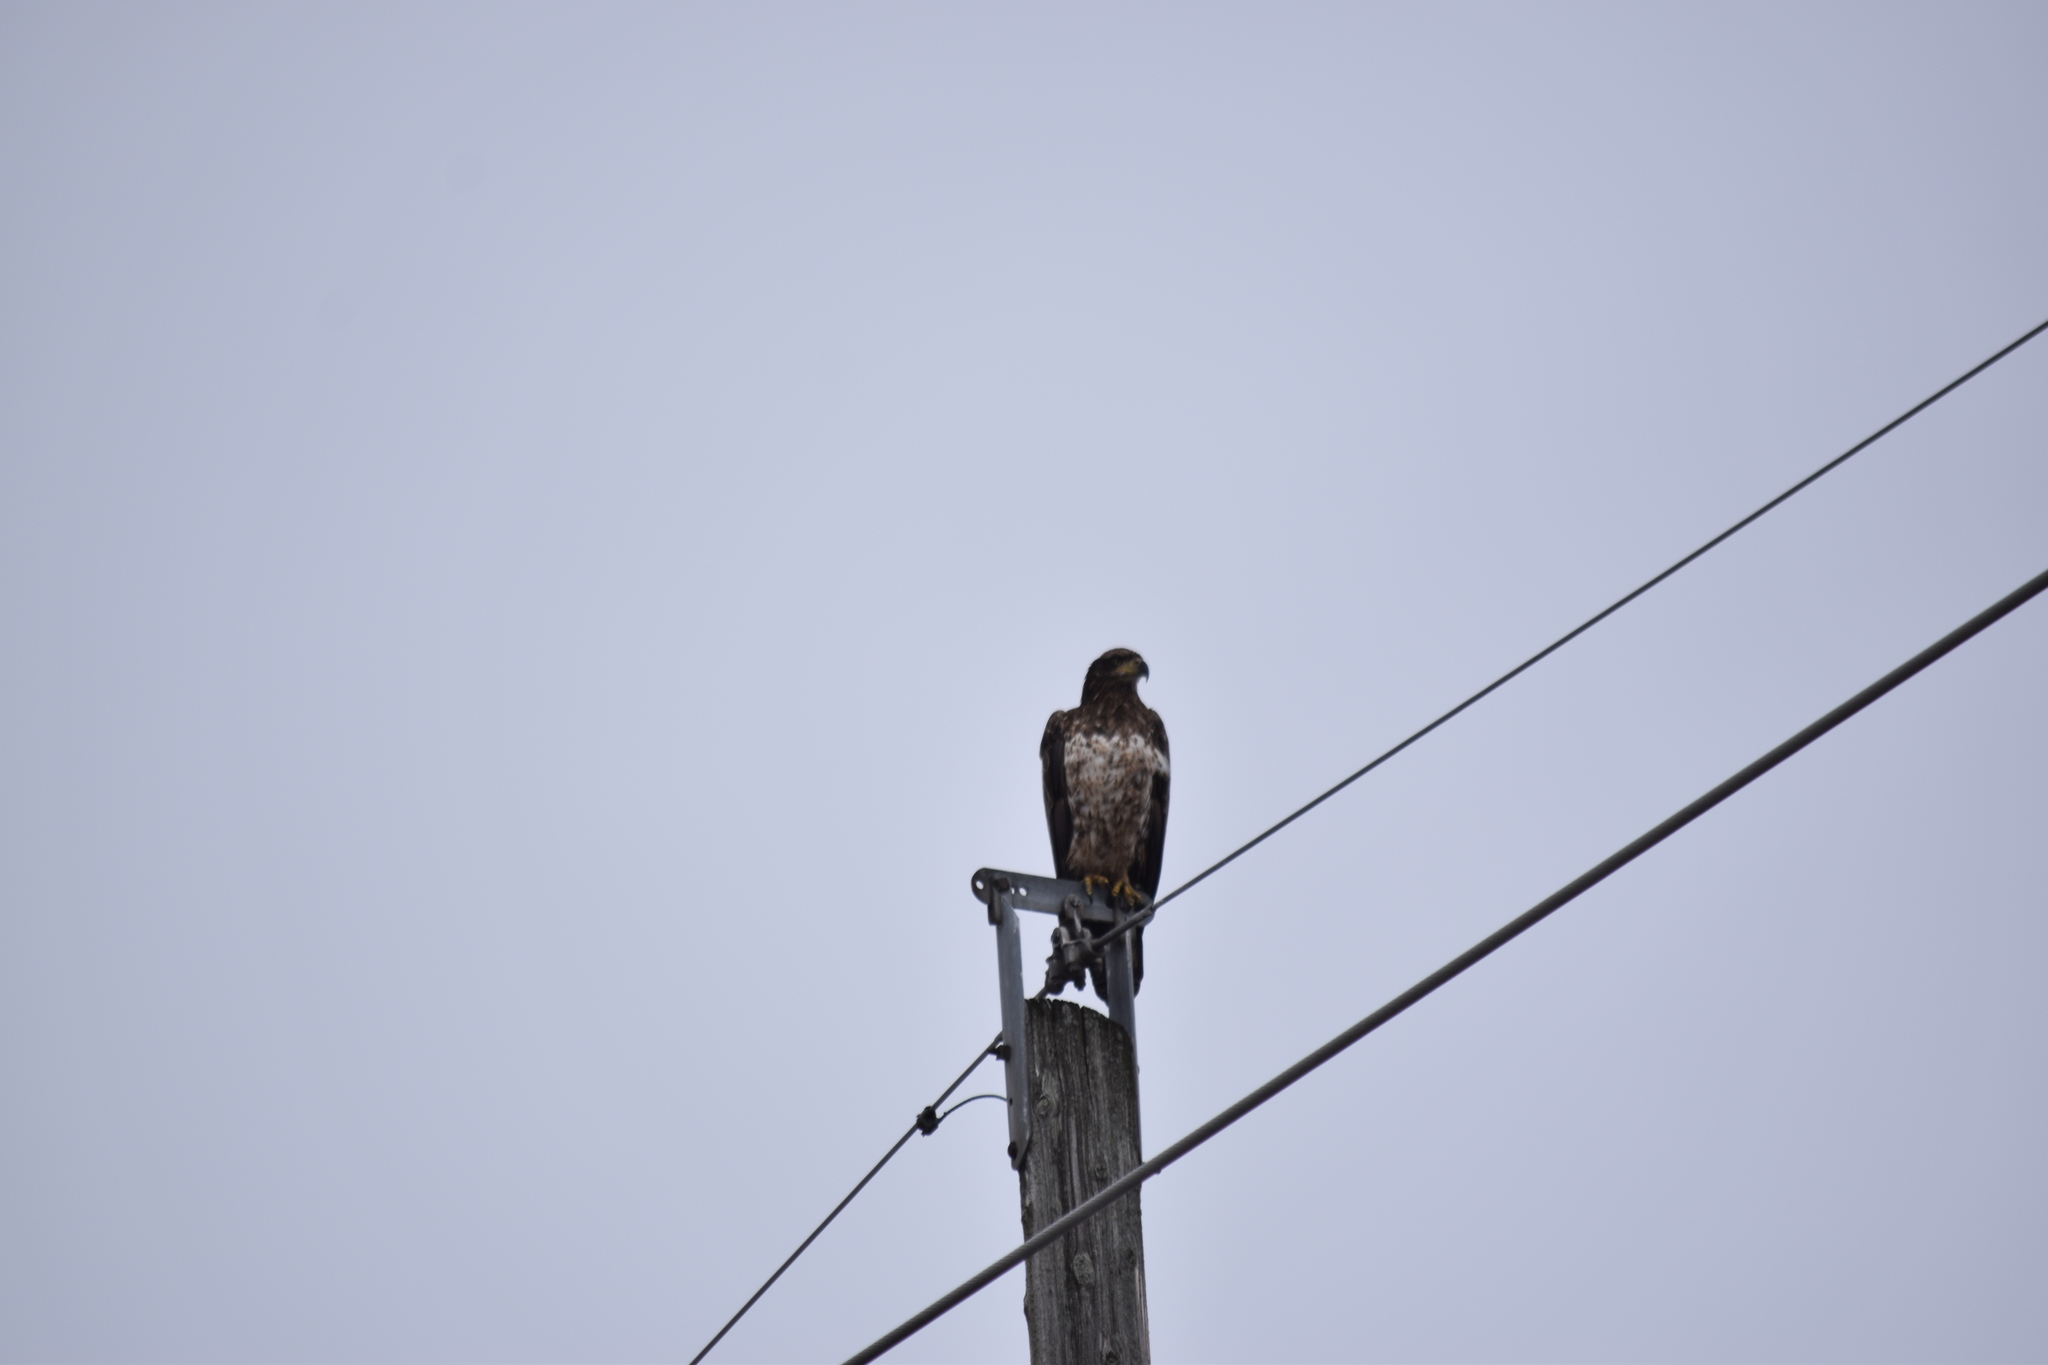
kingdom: Animalia
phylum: Chordata
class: Aves
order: Accipitriformes
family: Accipitridae
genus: Haliaeetus
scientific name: Haliaeetus leucocephalus
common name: Bald eagle
